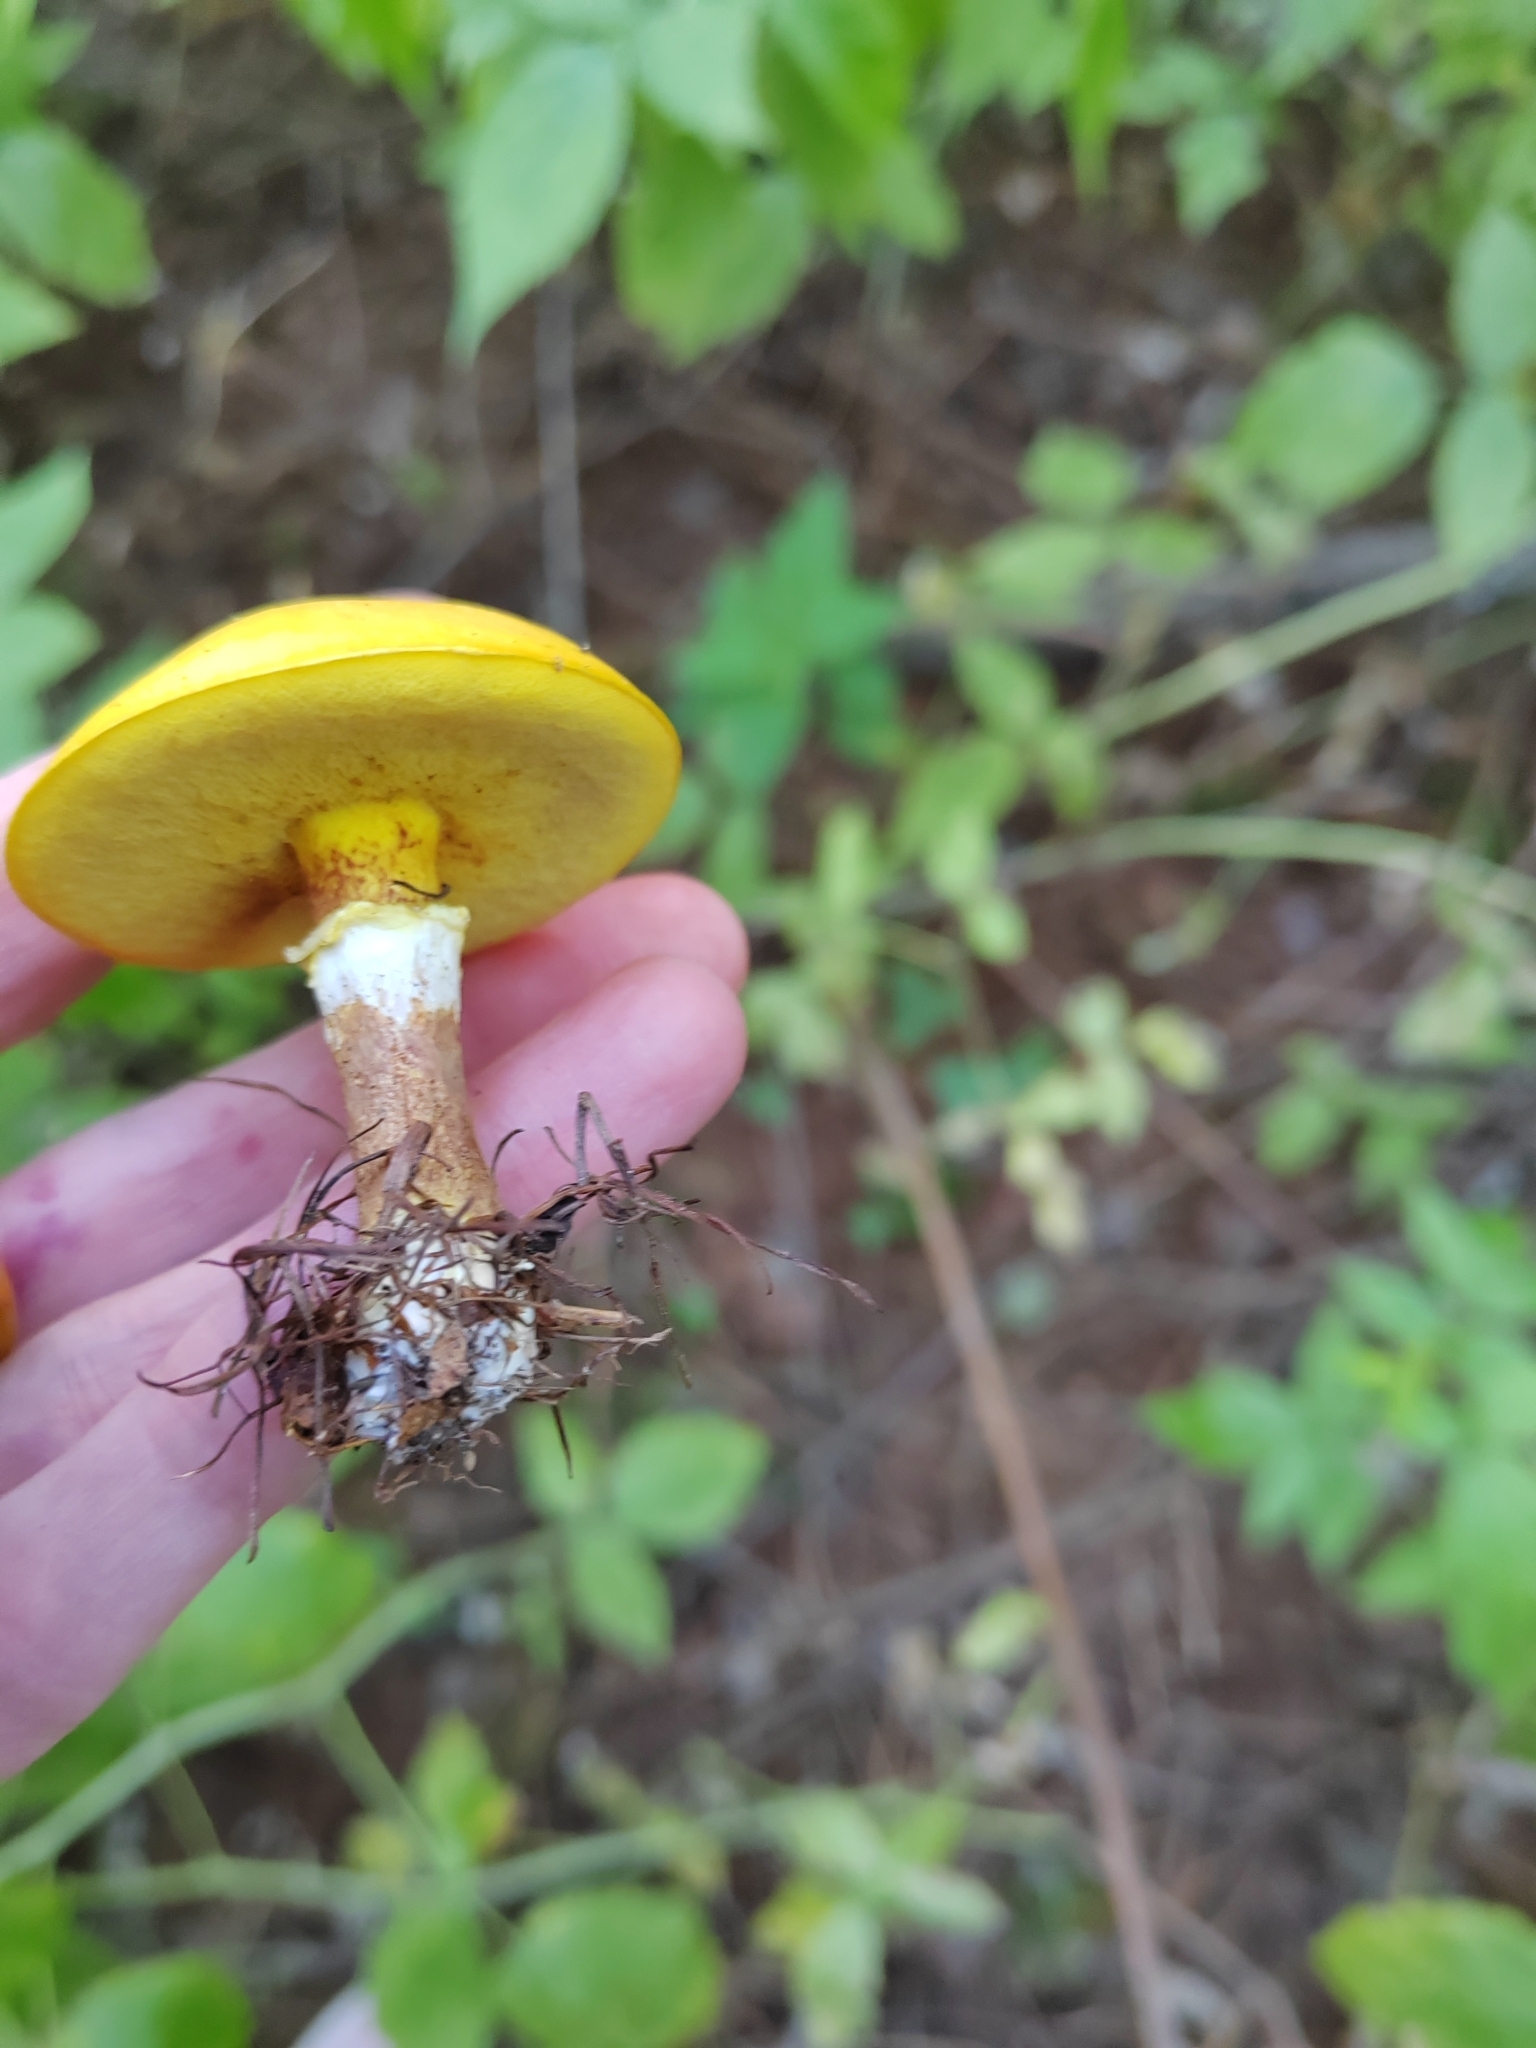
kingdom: Fungi
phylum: Basidiomycota
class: Agaricomycetes
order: Boletales
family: Suillaceae
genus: Suillus
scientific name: Suillus grevillei
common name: Larch bolete
